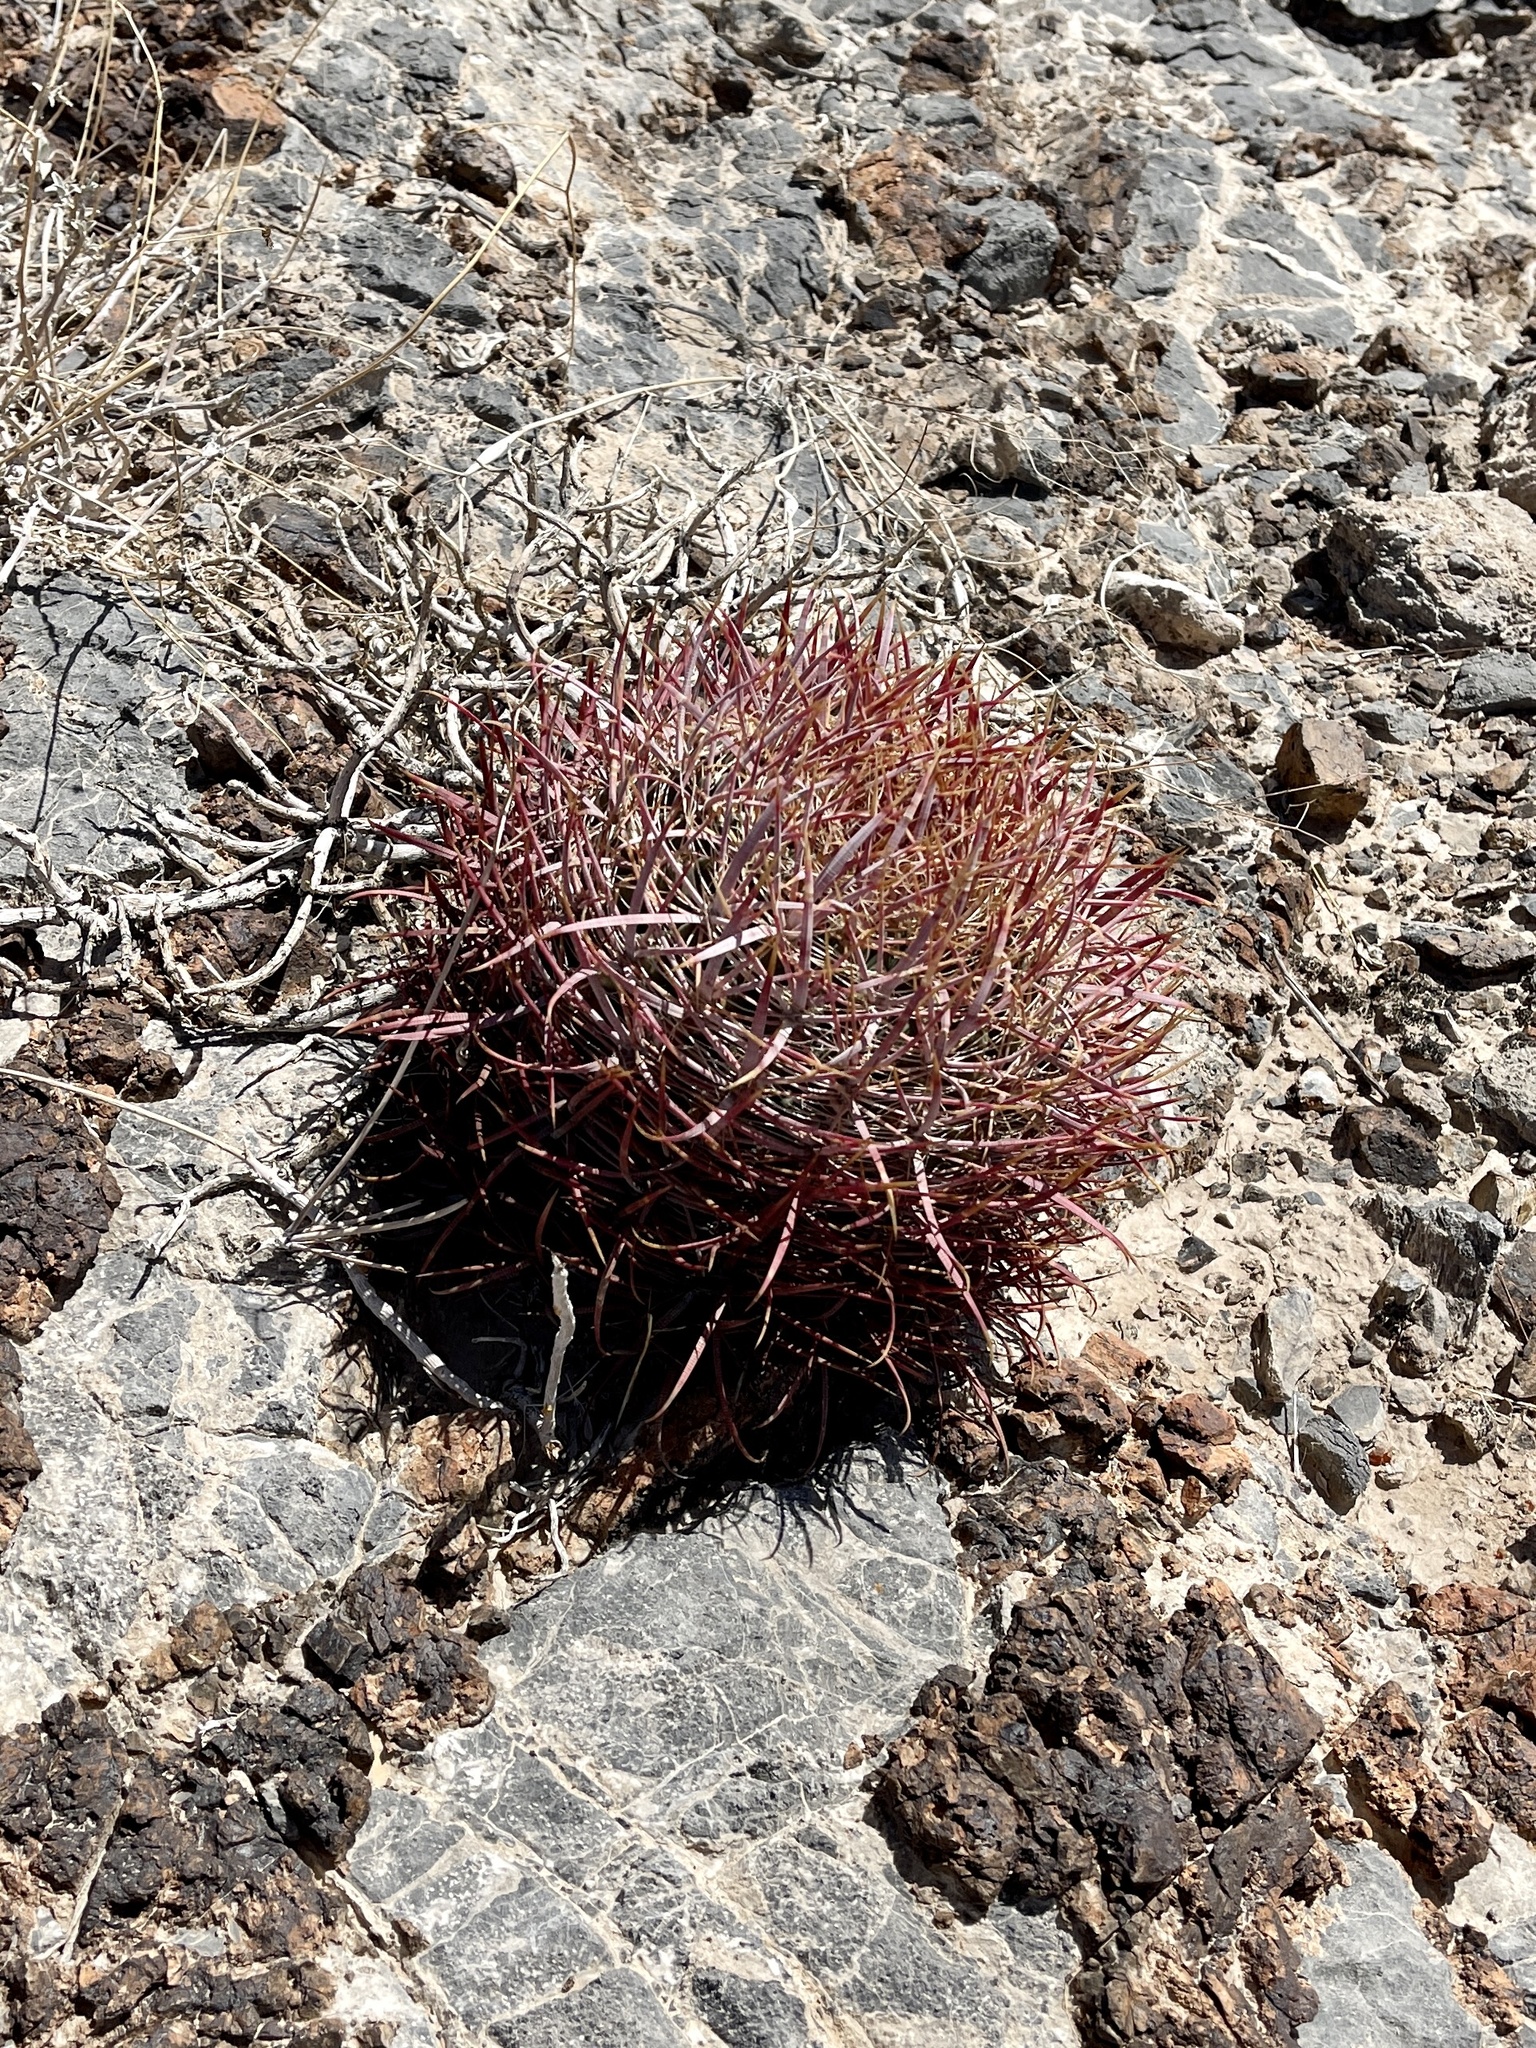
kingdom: Plantae
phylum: Tracheophyta
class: Magnoliopsida
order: Caryophyllales
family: Cactaceae
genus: Ferocactus
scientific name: Ferocactus cylindraceus
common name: California barrel cactus
